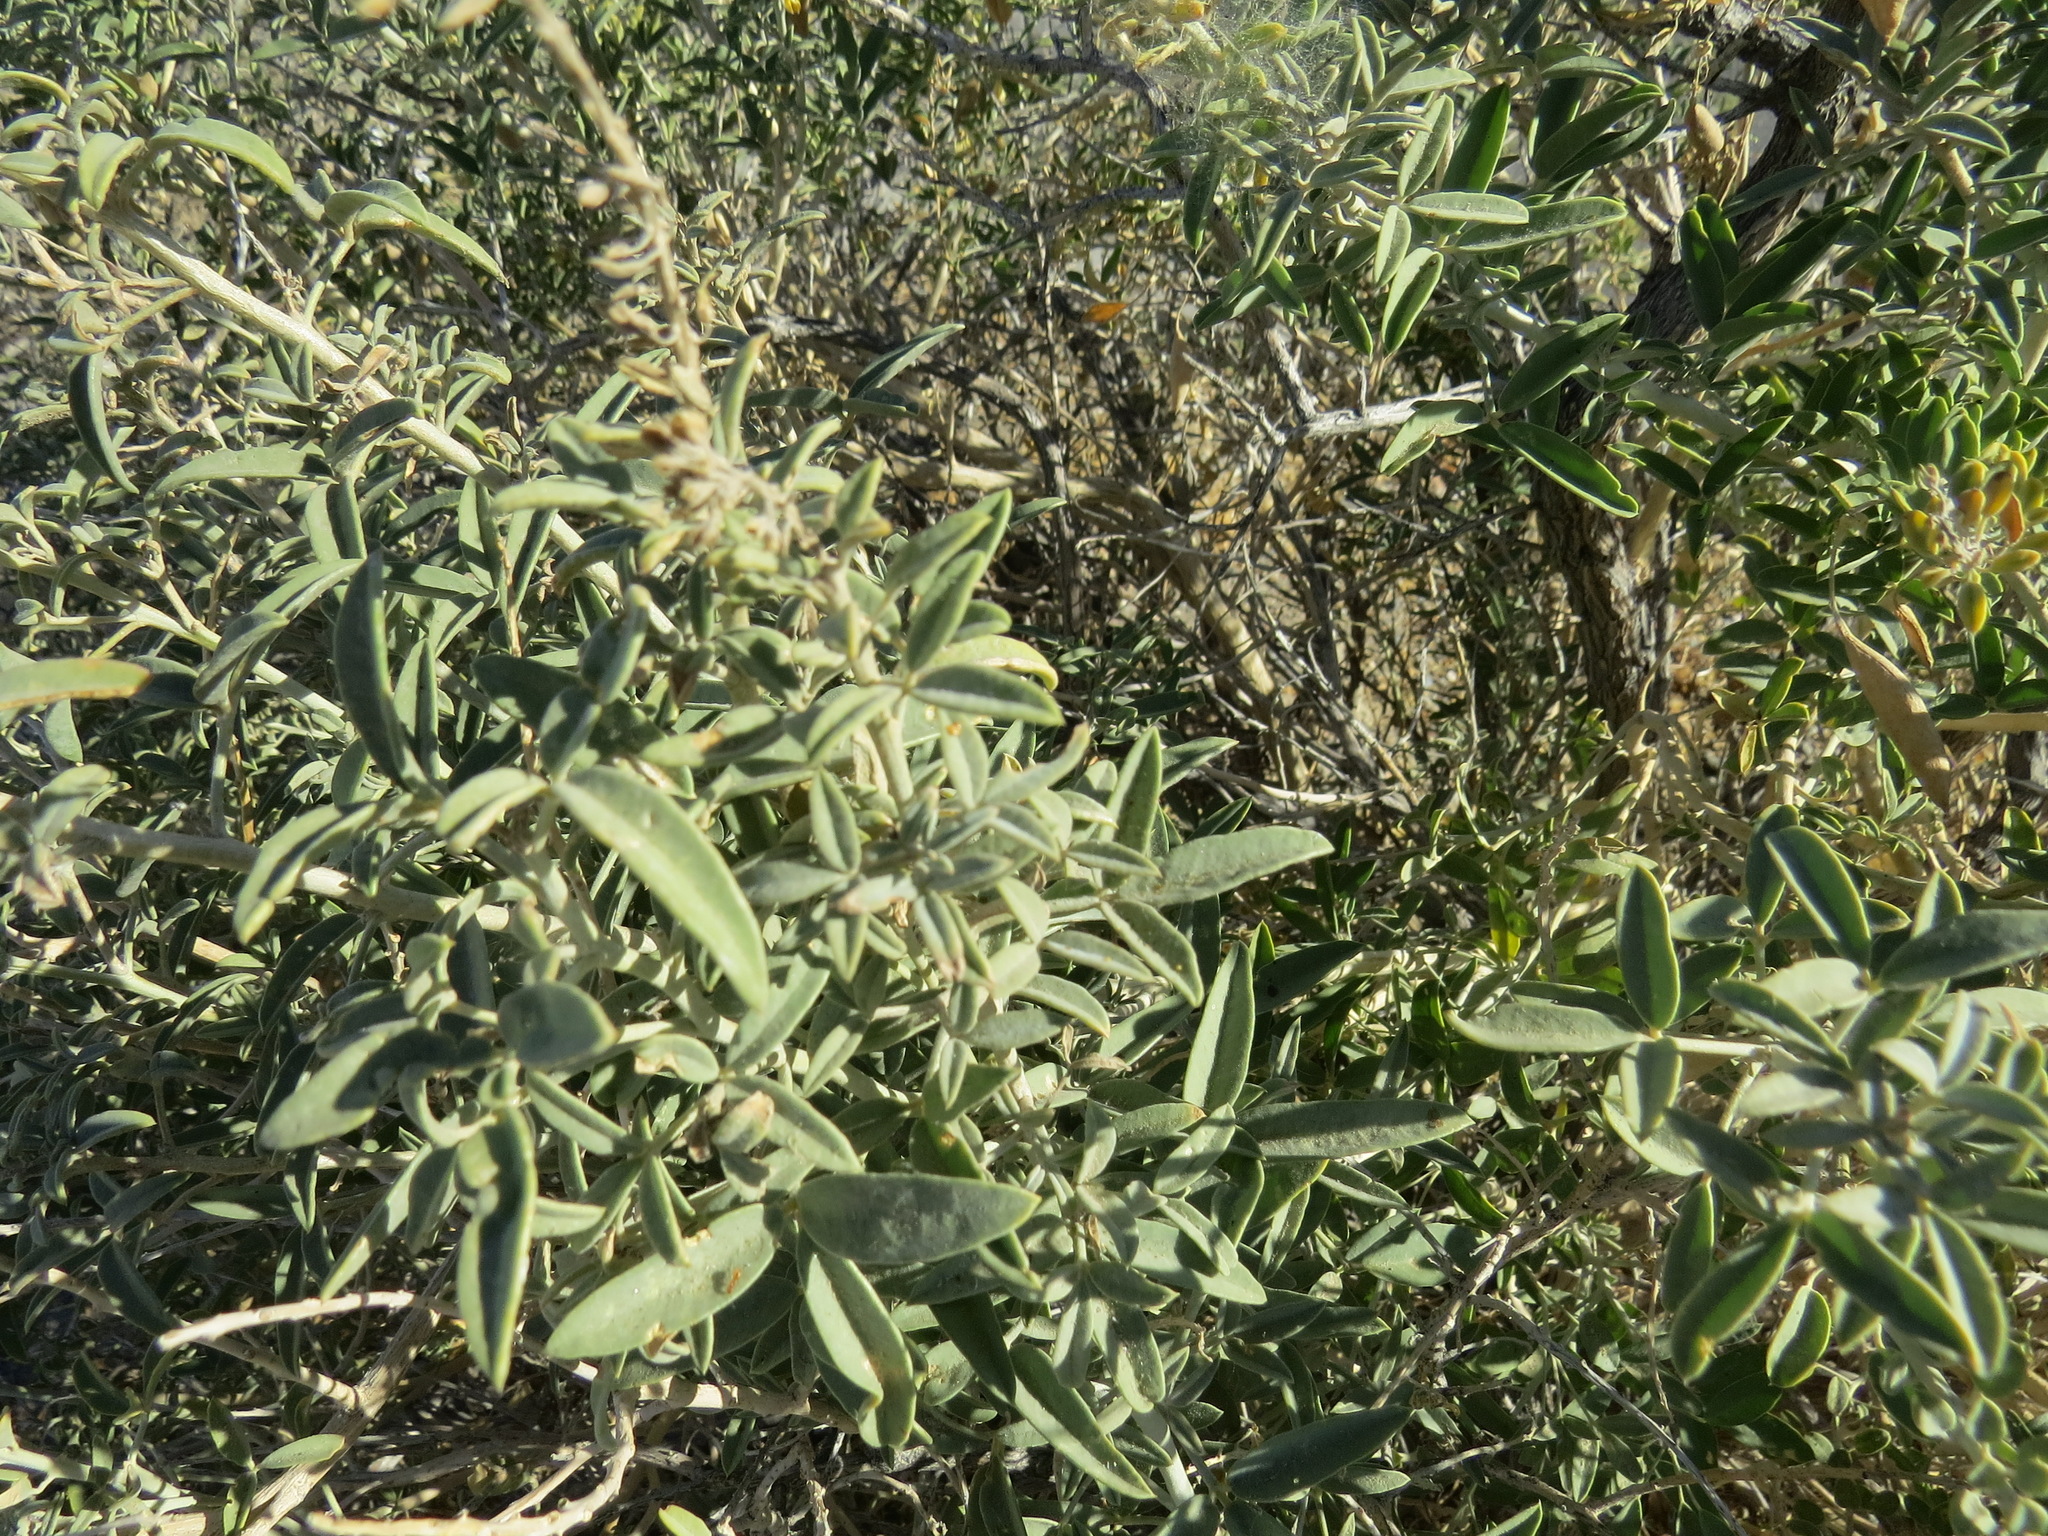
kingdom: Plantae
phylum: Tracheophyta
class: Magnoliopsida
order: Brassicales
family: Cleomaceae
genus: Cleomella
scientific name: Cleomella arborea
